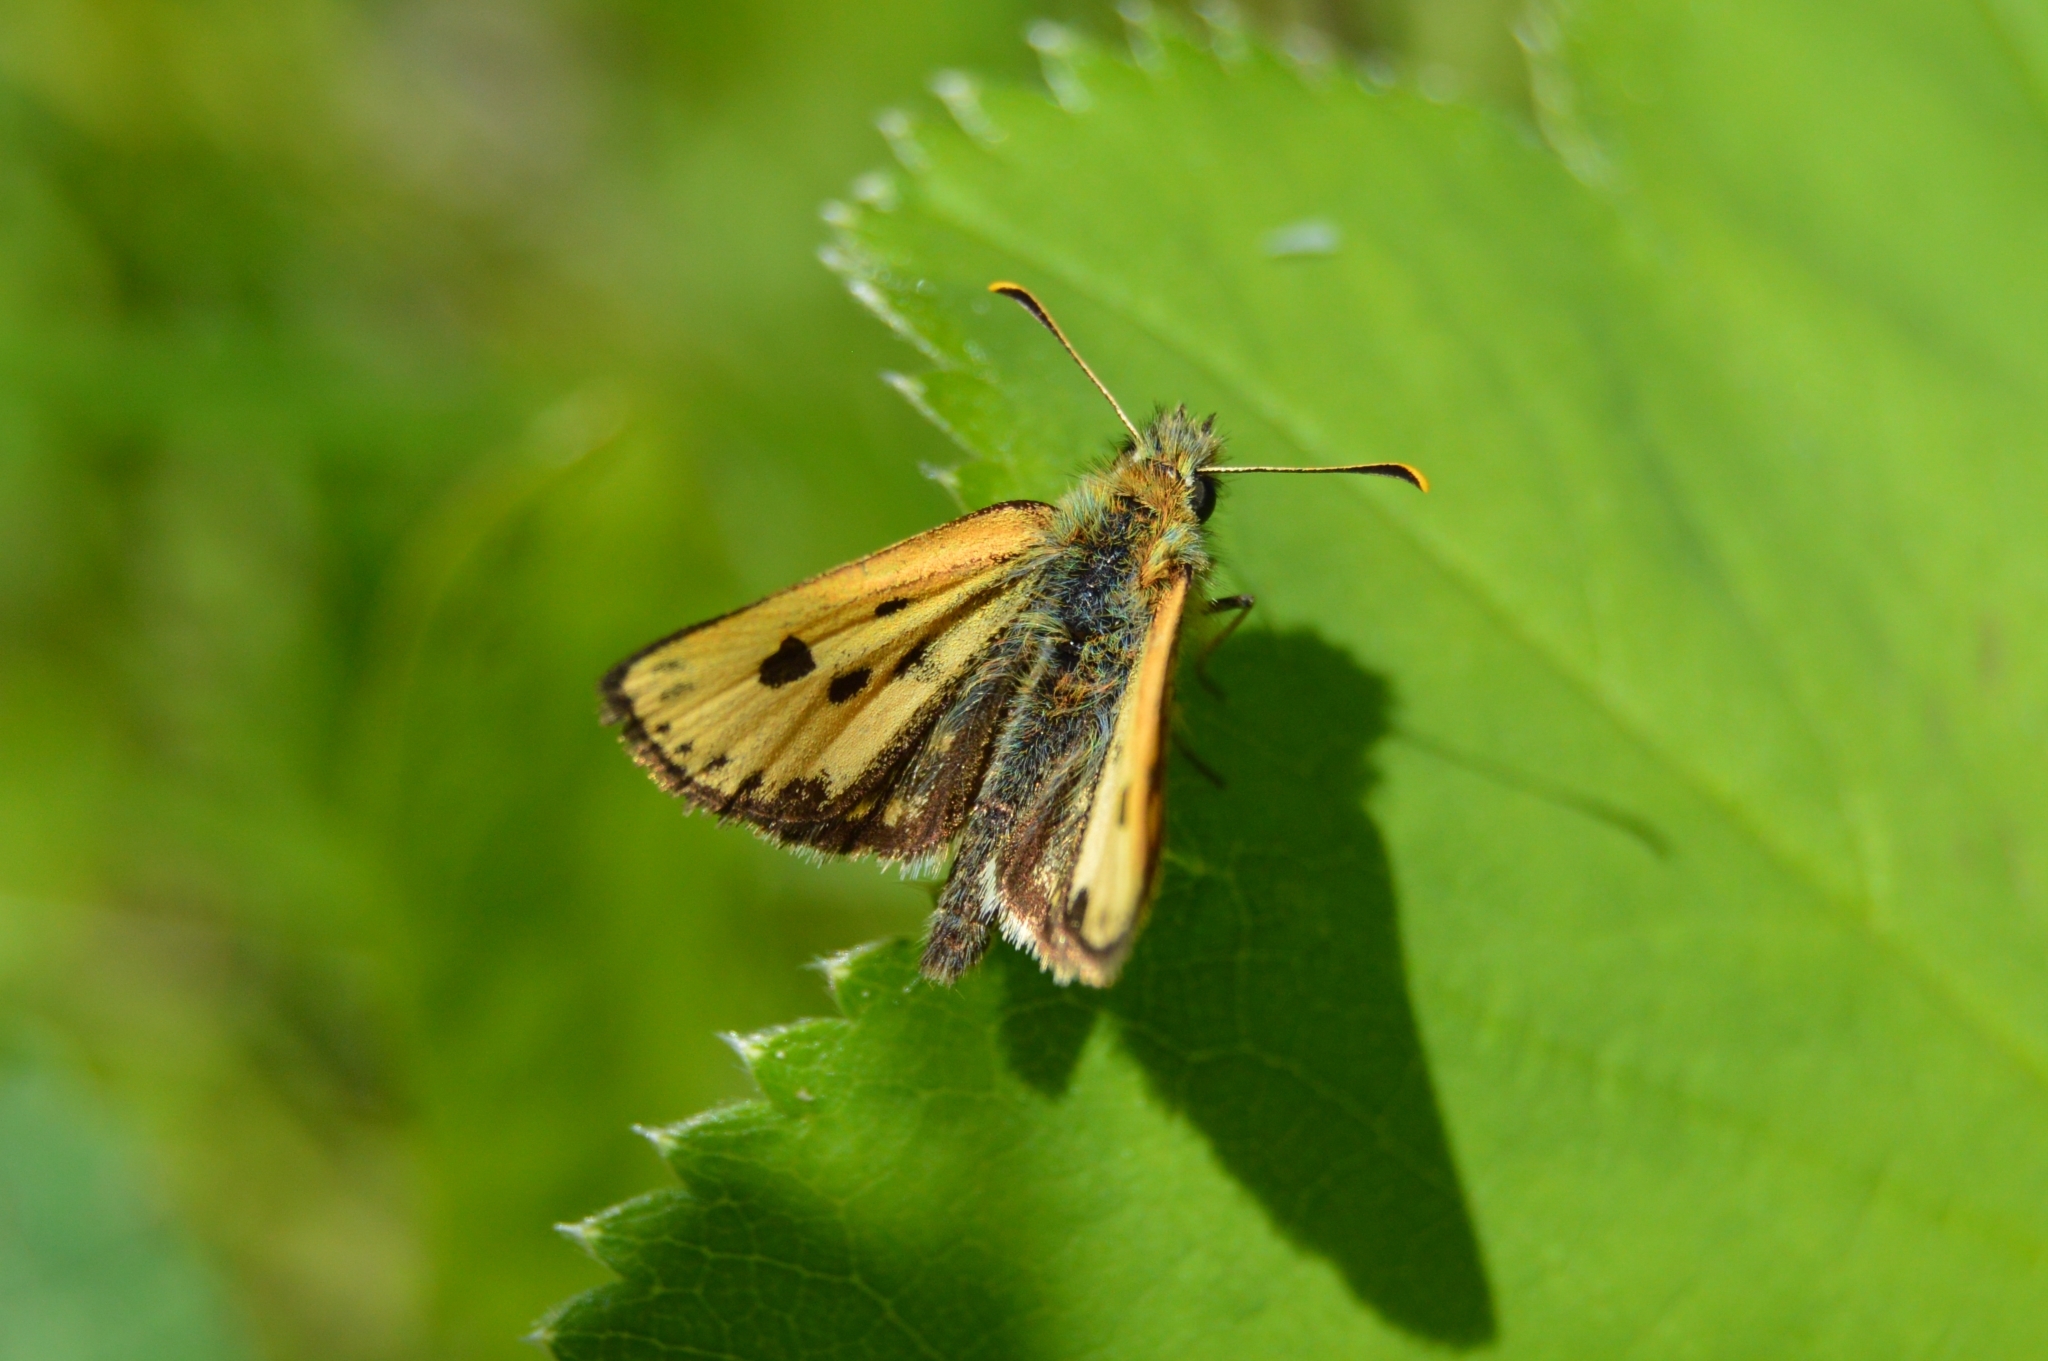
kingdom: Animalia
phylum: Arthropoda
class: Insecta
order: Lepidoptera
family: Hesperiidae
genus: Carterocephalus
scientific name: Carterocephalus silvicola
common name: Northern chequered skipper
